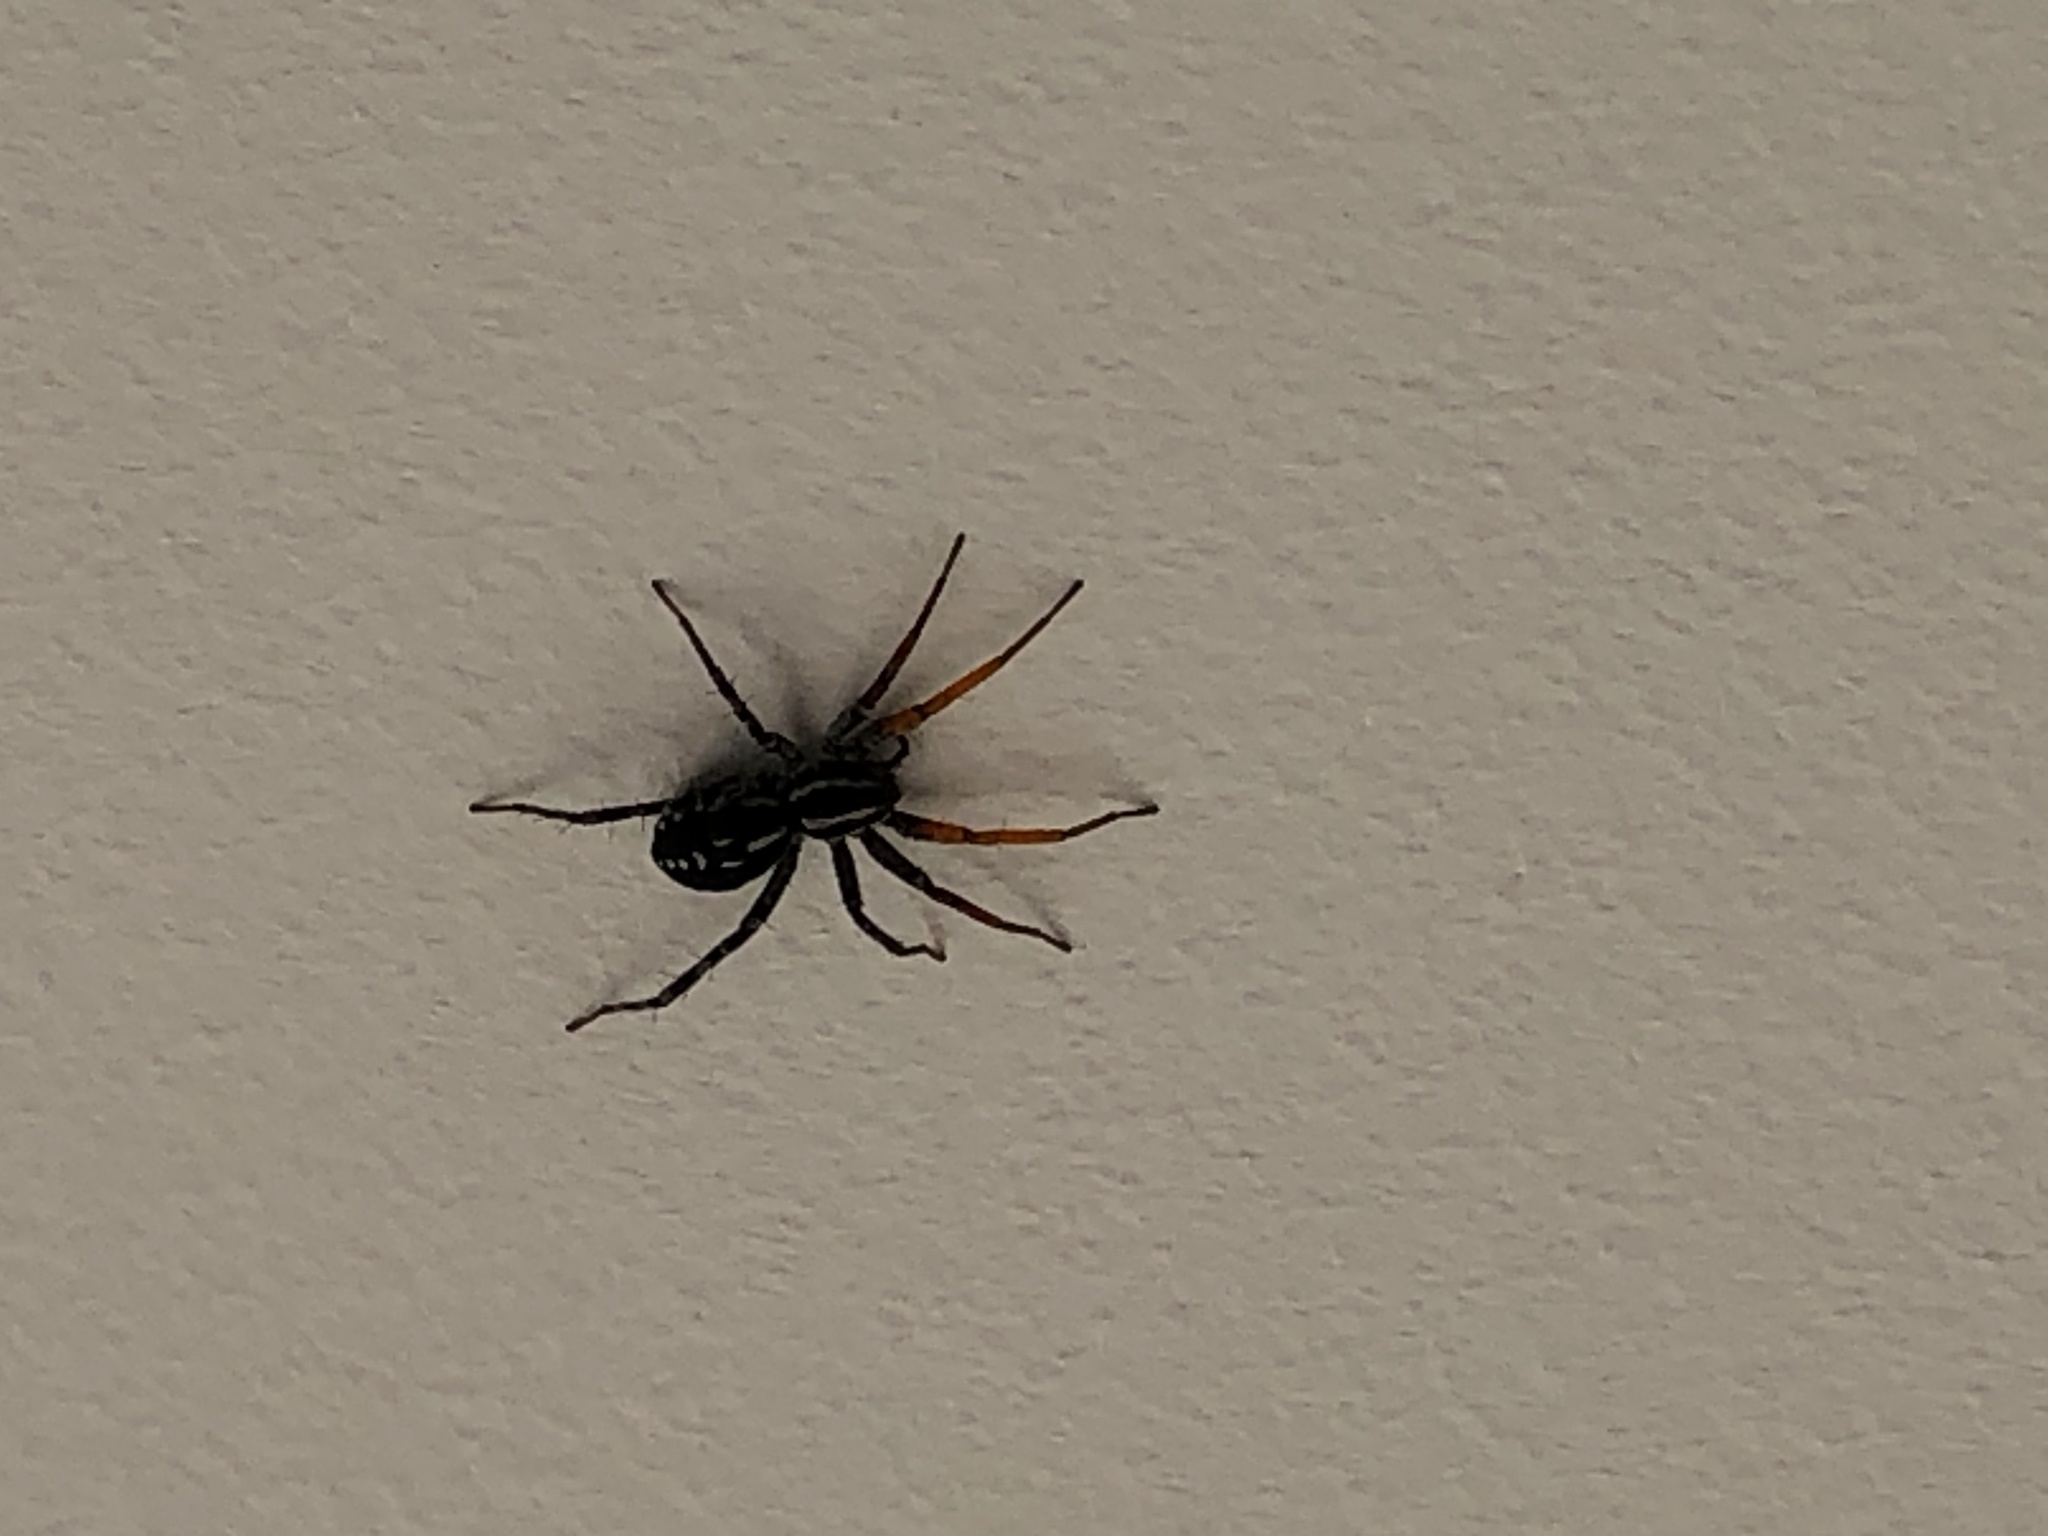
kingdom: Animalia
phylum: Arthropoda
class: Arachnida
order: Araneae
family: Corinnidae
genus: Nyssus
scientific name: Nyssus coloripes
